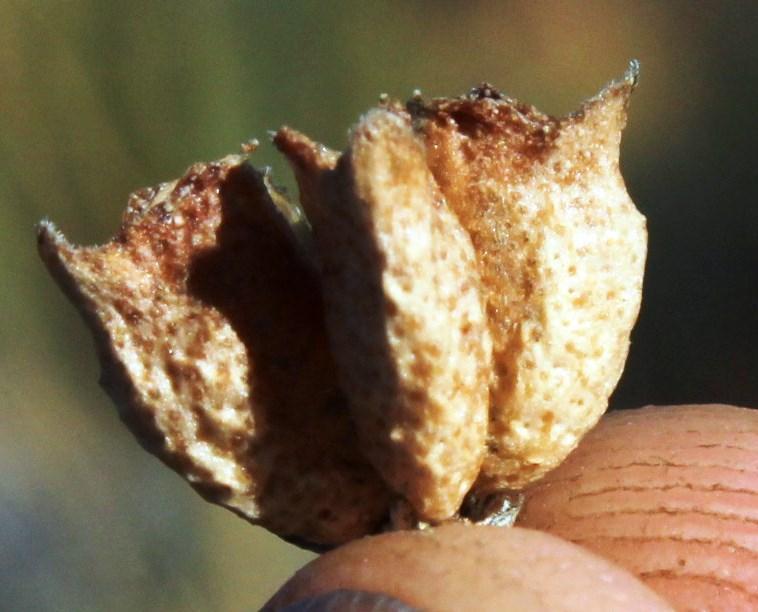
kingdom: Plantae
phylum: Tracheophyta
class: Magnoliopsida
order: Sapindales
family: Rutaceae
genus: Agathosma
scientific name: Agathosma betulina
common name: Mountain buchu
